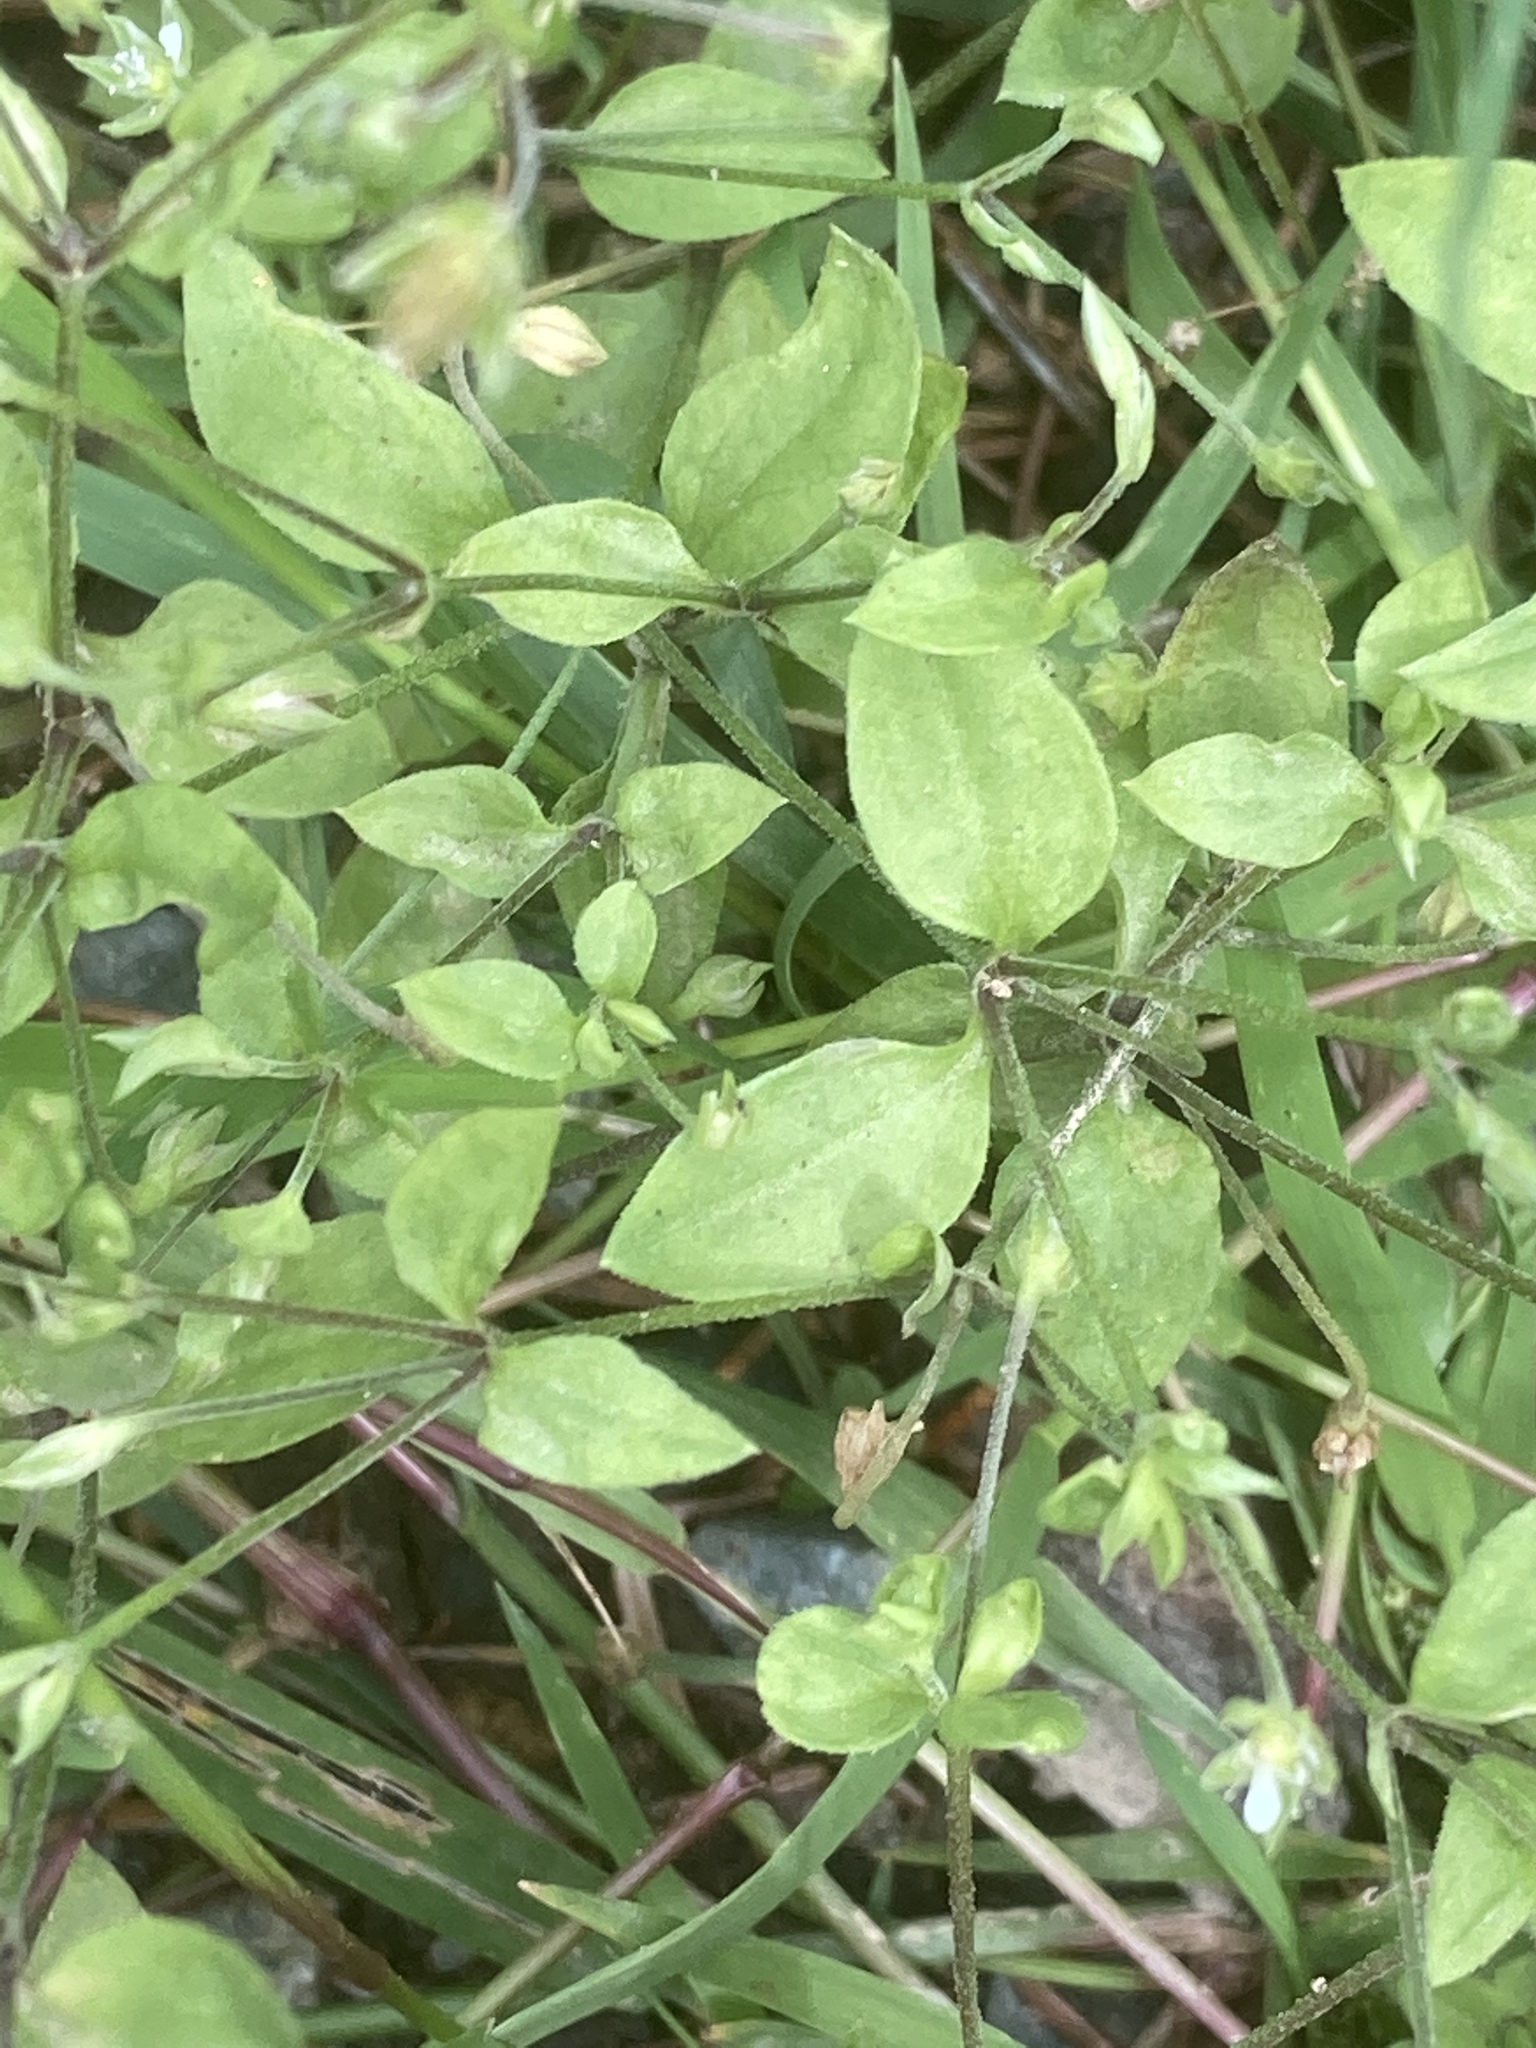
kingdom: Plantae
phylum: Tracheophyta
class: Magnoliopsida
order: Caryophyllales
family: Caryophyllaceae
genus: Moehringia
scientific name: Moehringia trinervia
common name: Three-nerved sandwort
